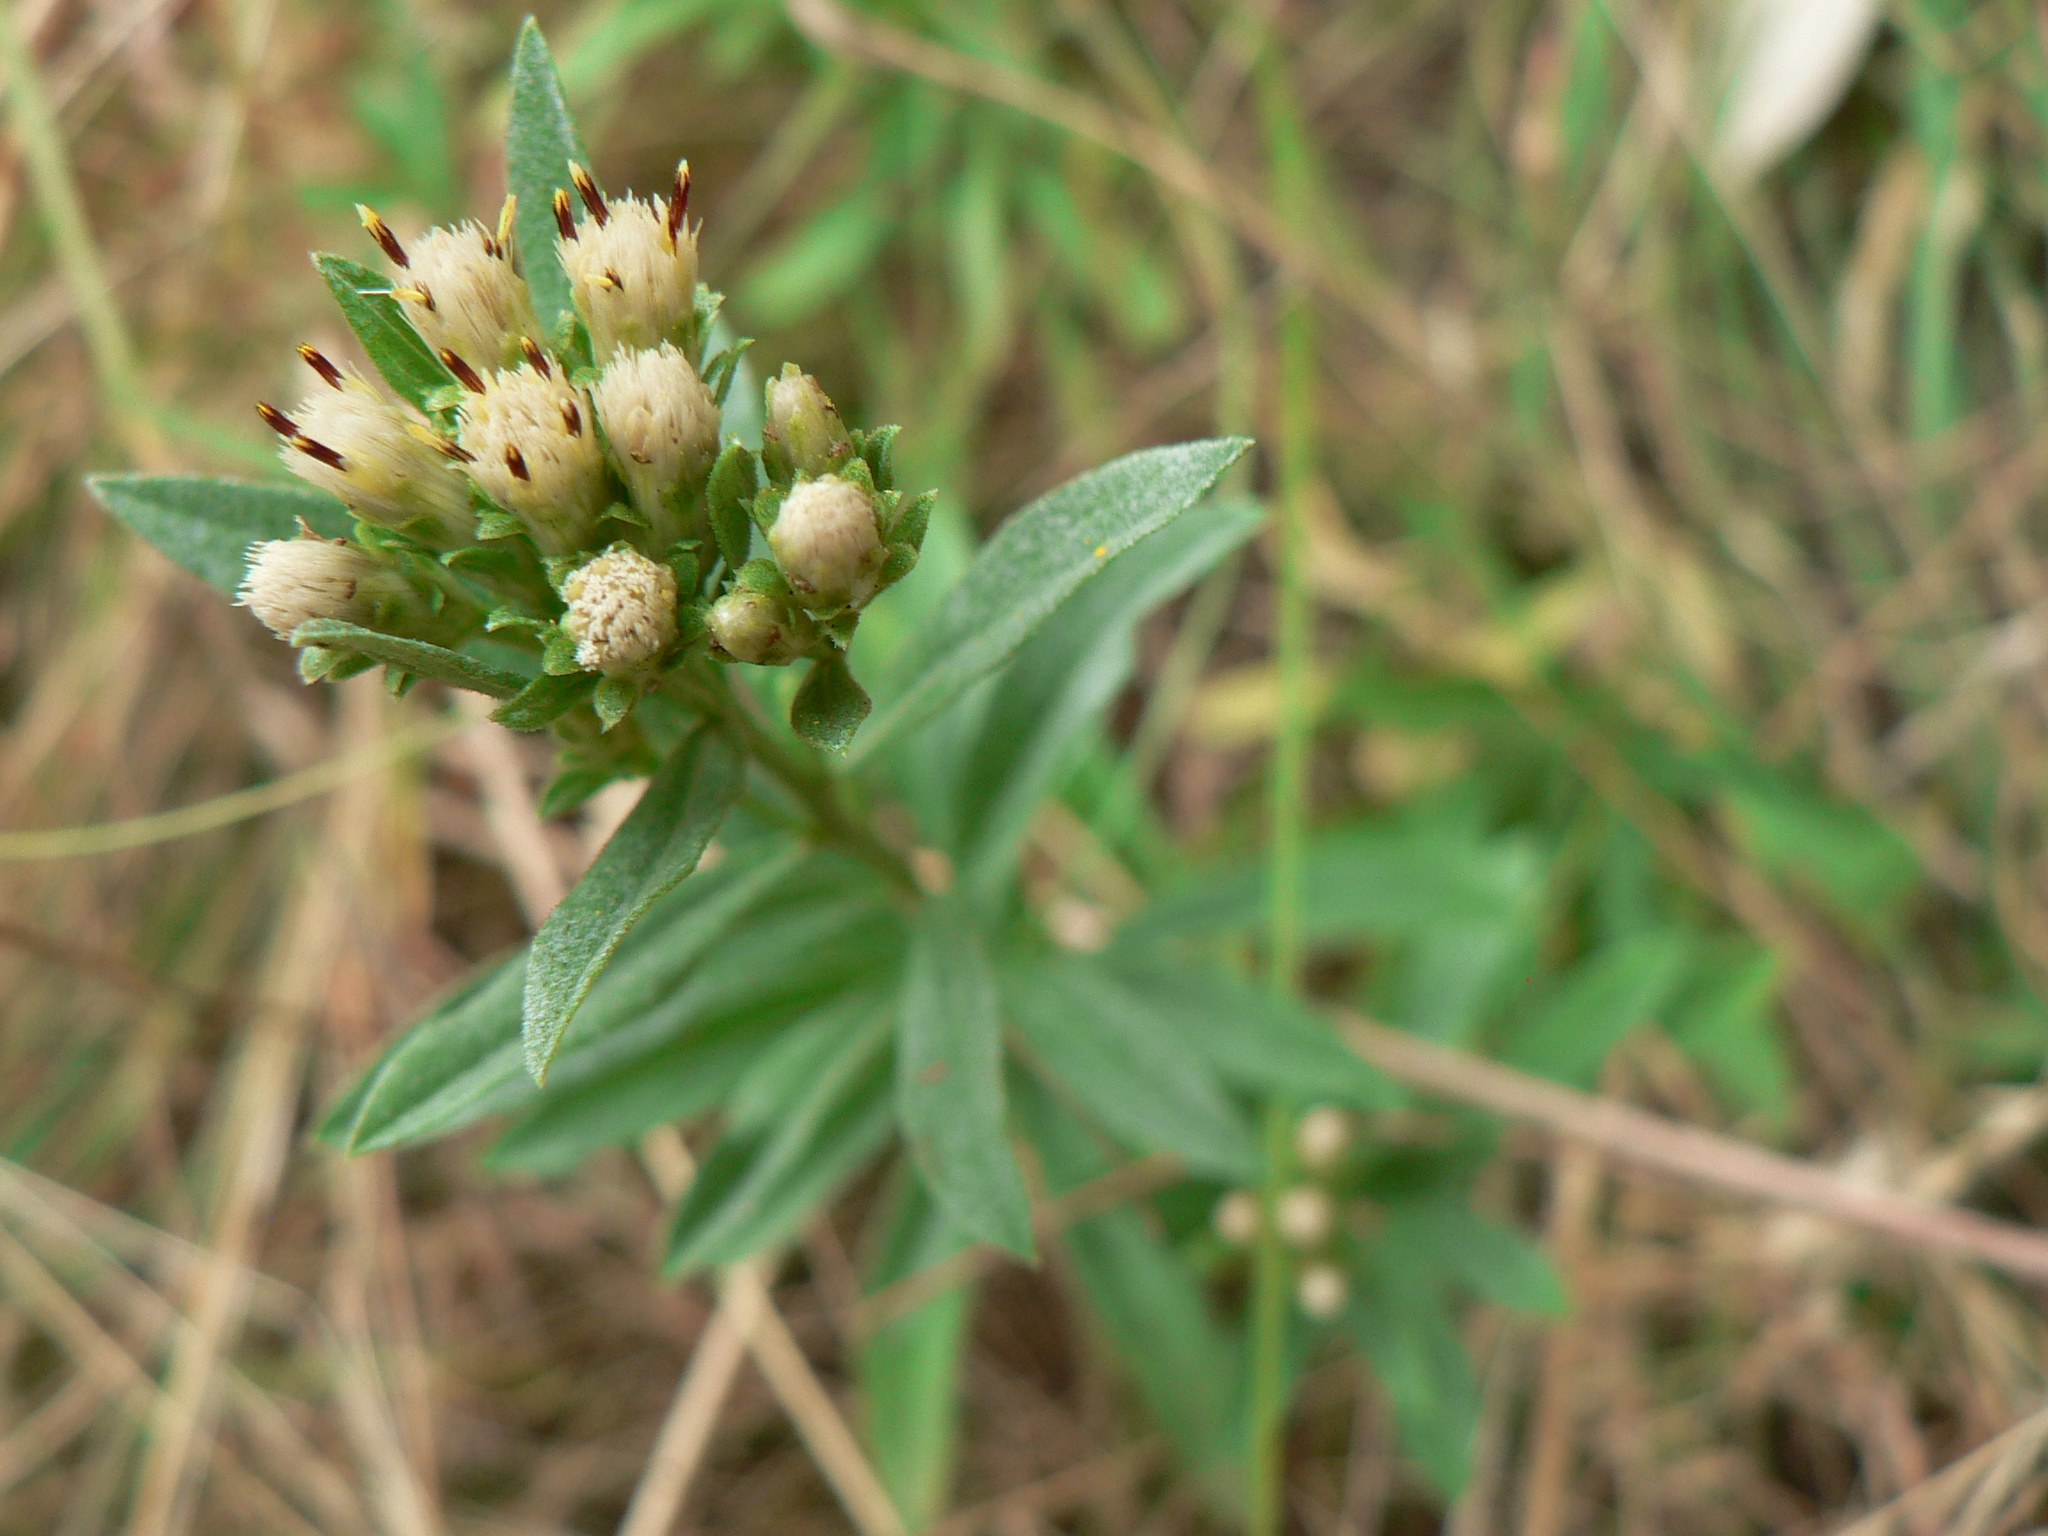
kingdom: Plantae
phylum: Tracheophyta
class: Magnoliopsida
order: Asterales
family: Asteraceae
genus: Sericocarpus
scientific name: Sericocarpus rigidus
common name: Columbia white-top aster
